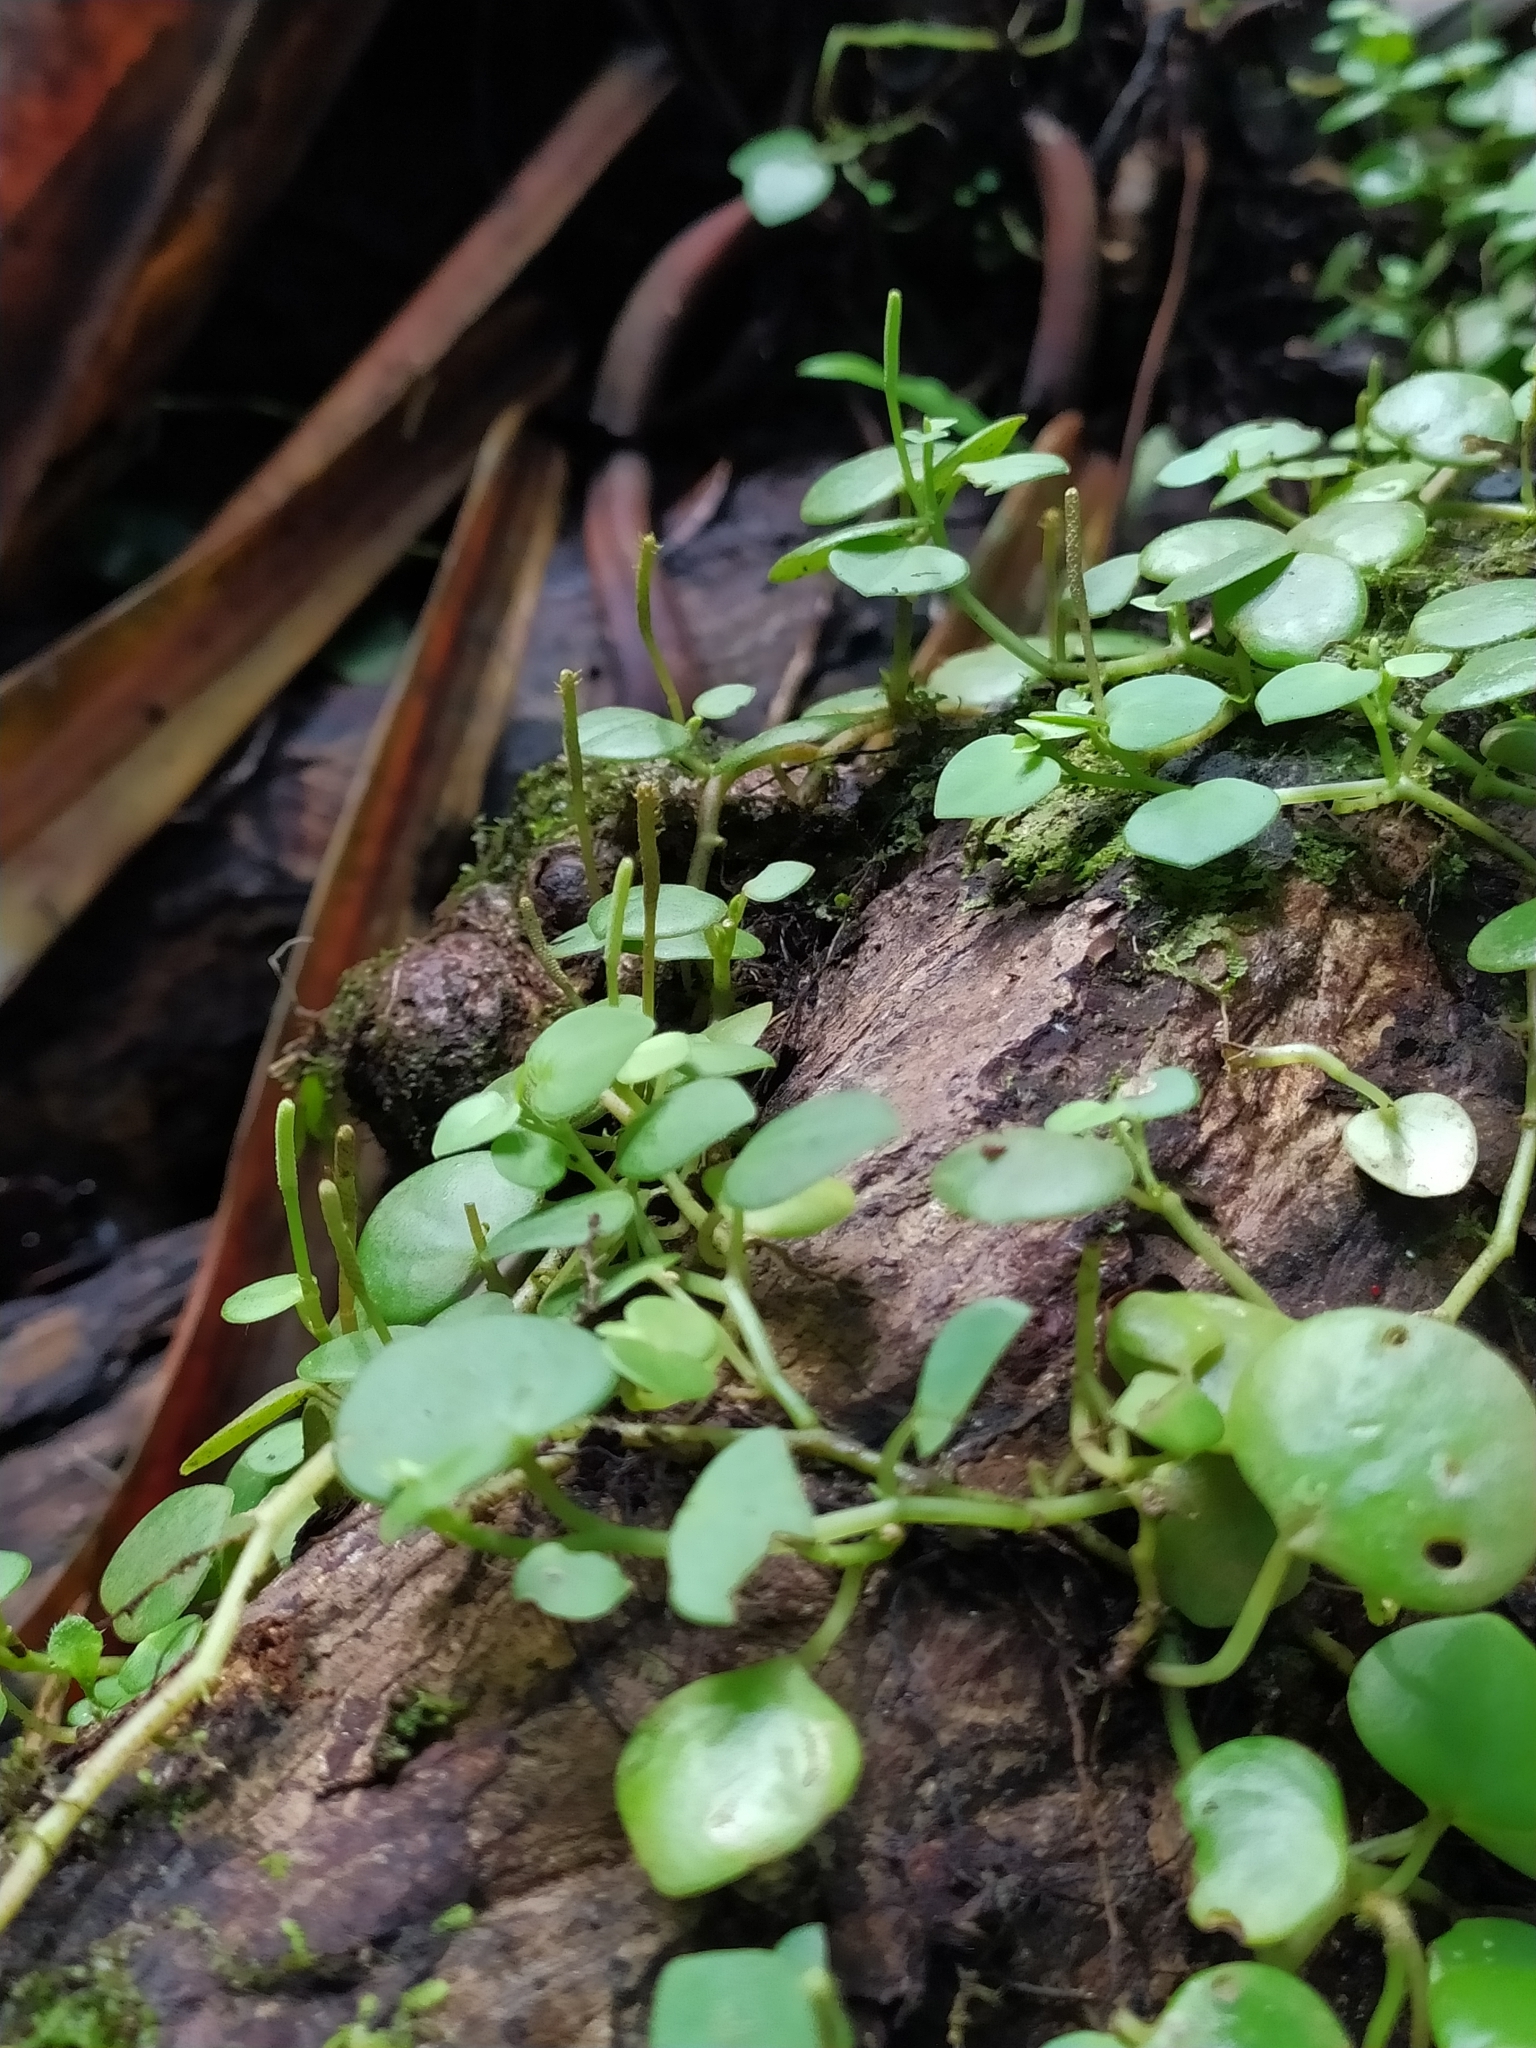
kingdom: Plantae
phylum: Tracheophyta
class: Magnoliopsida
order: Piperales
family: Piperaceae
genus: Peperomia
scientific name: Peperomia serpens
